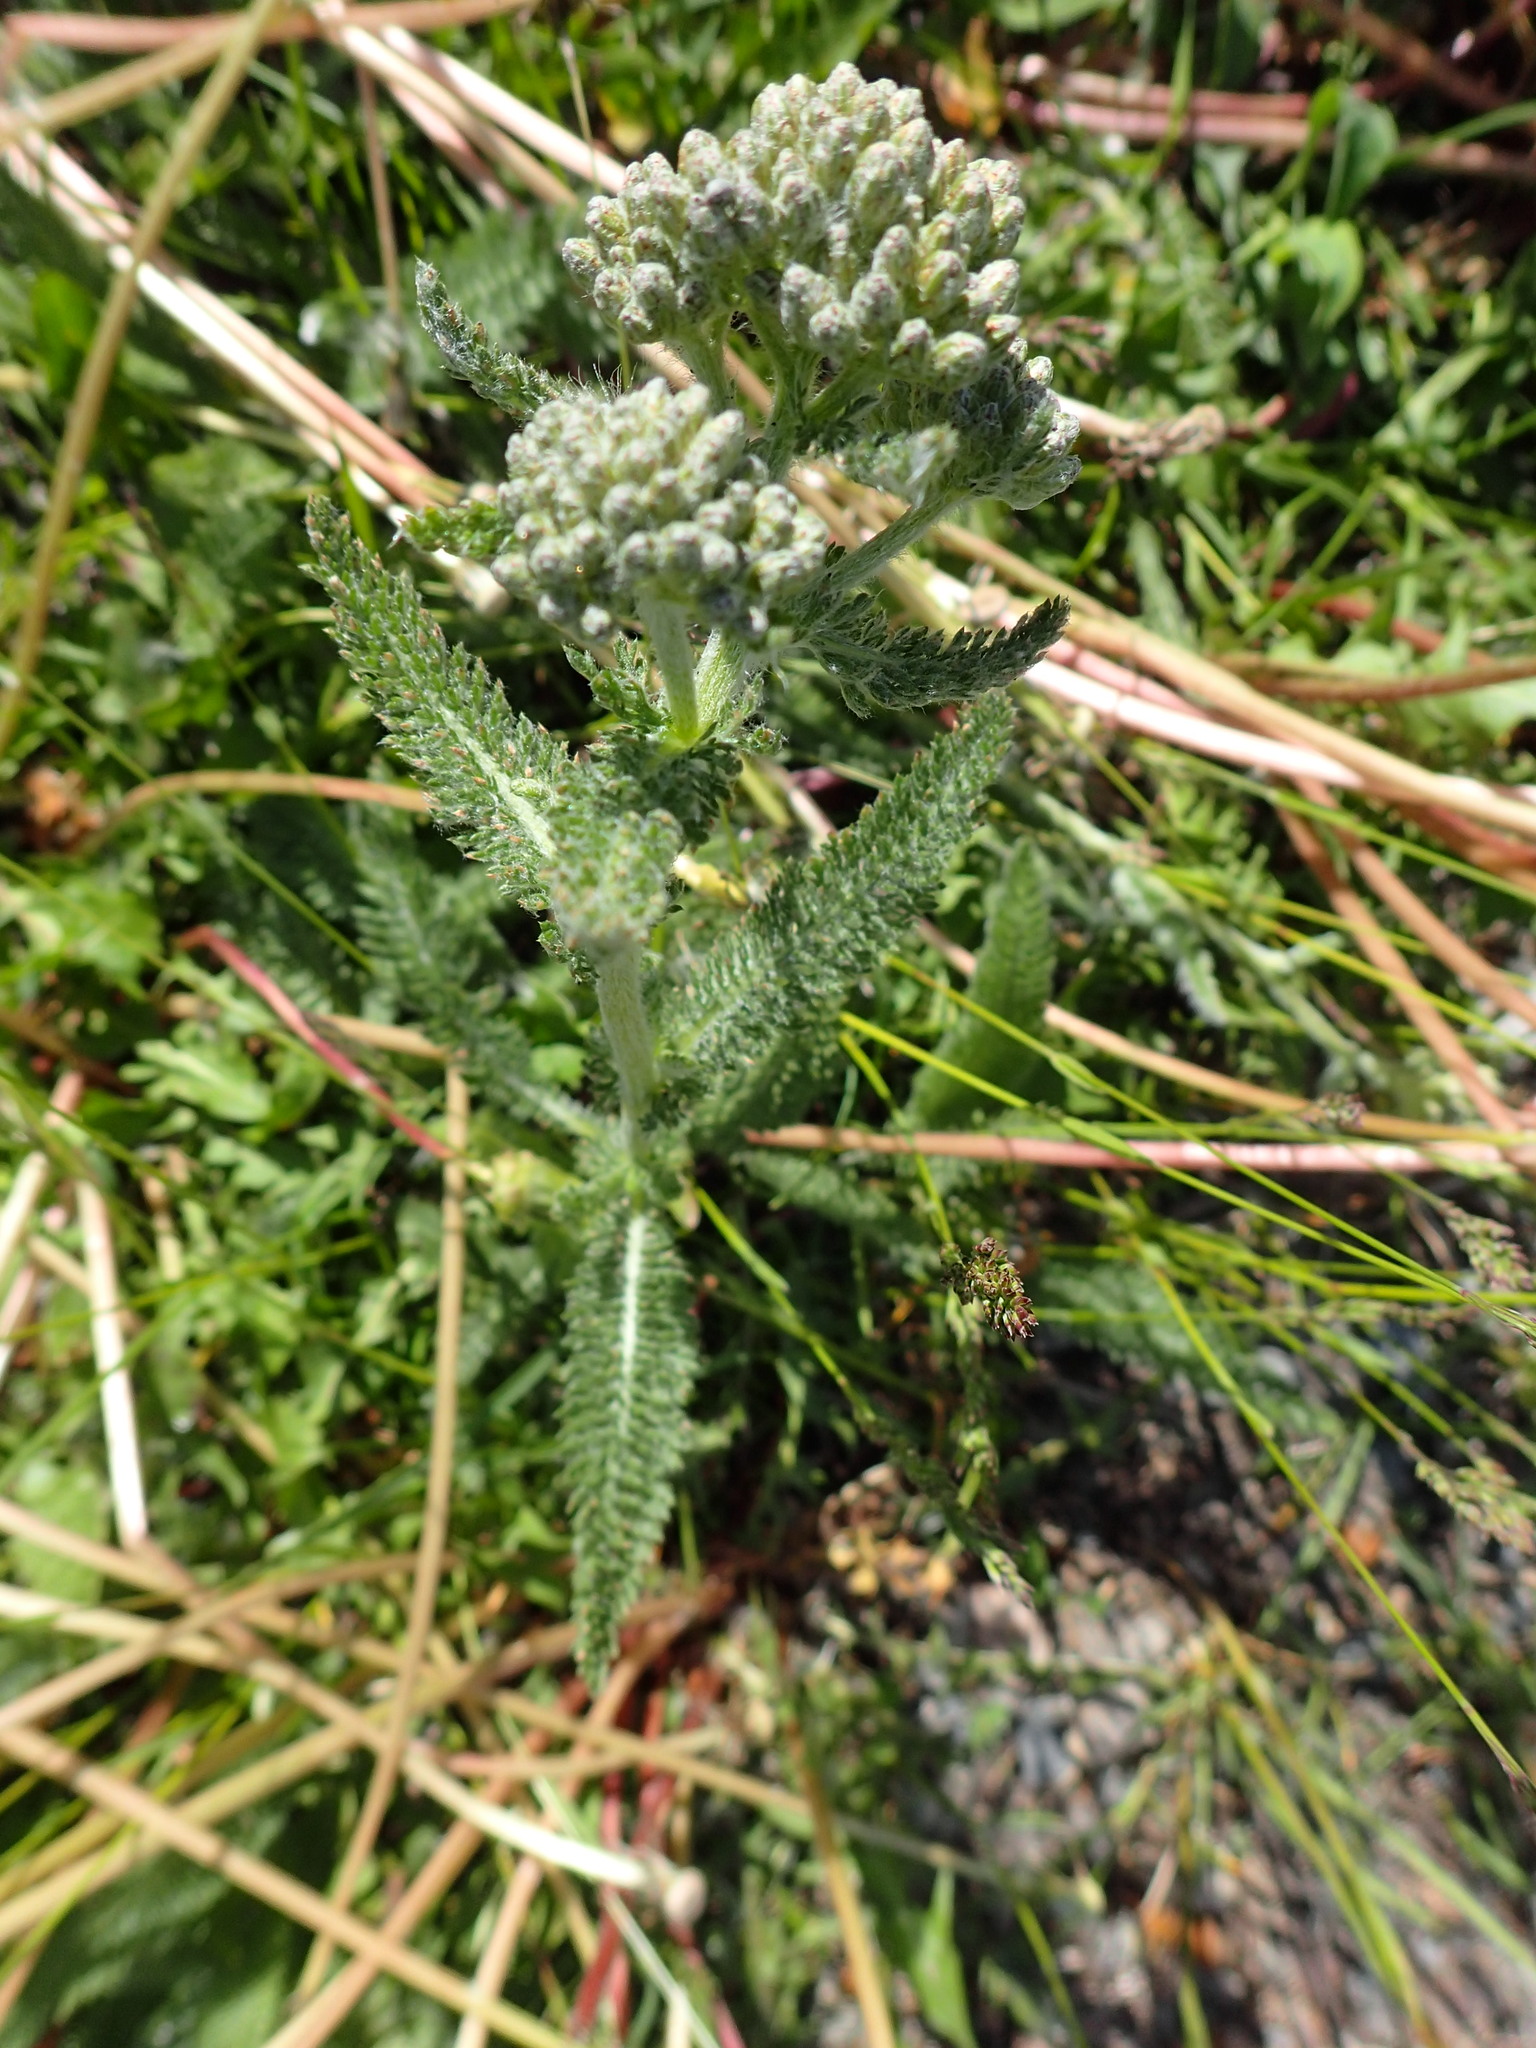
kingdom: Plantae
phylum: Tracheophyta
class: Magnoliopsida
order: Asterales
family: Asteraceae
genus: Achillea
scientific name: Achillea millefolium
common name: Yarrow
